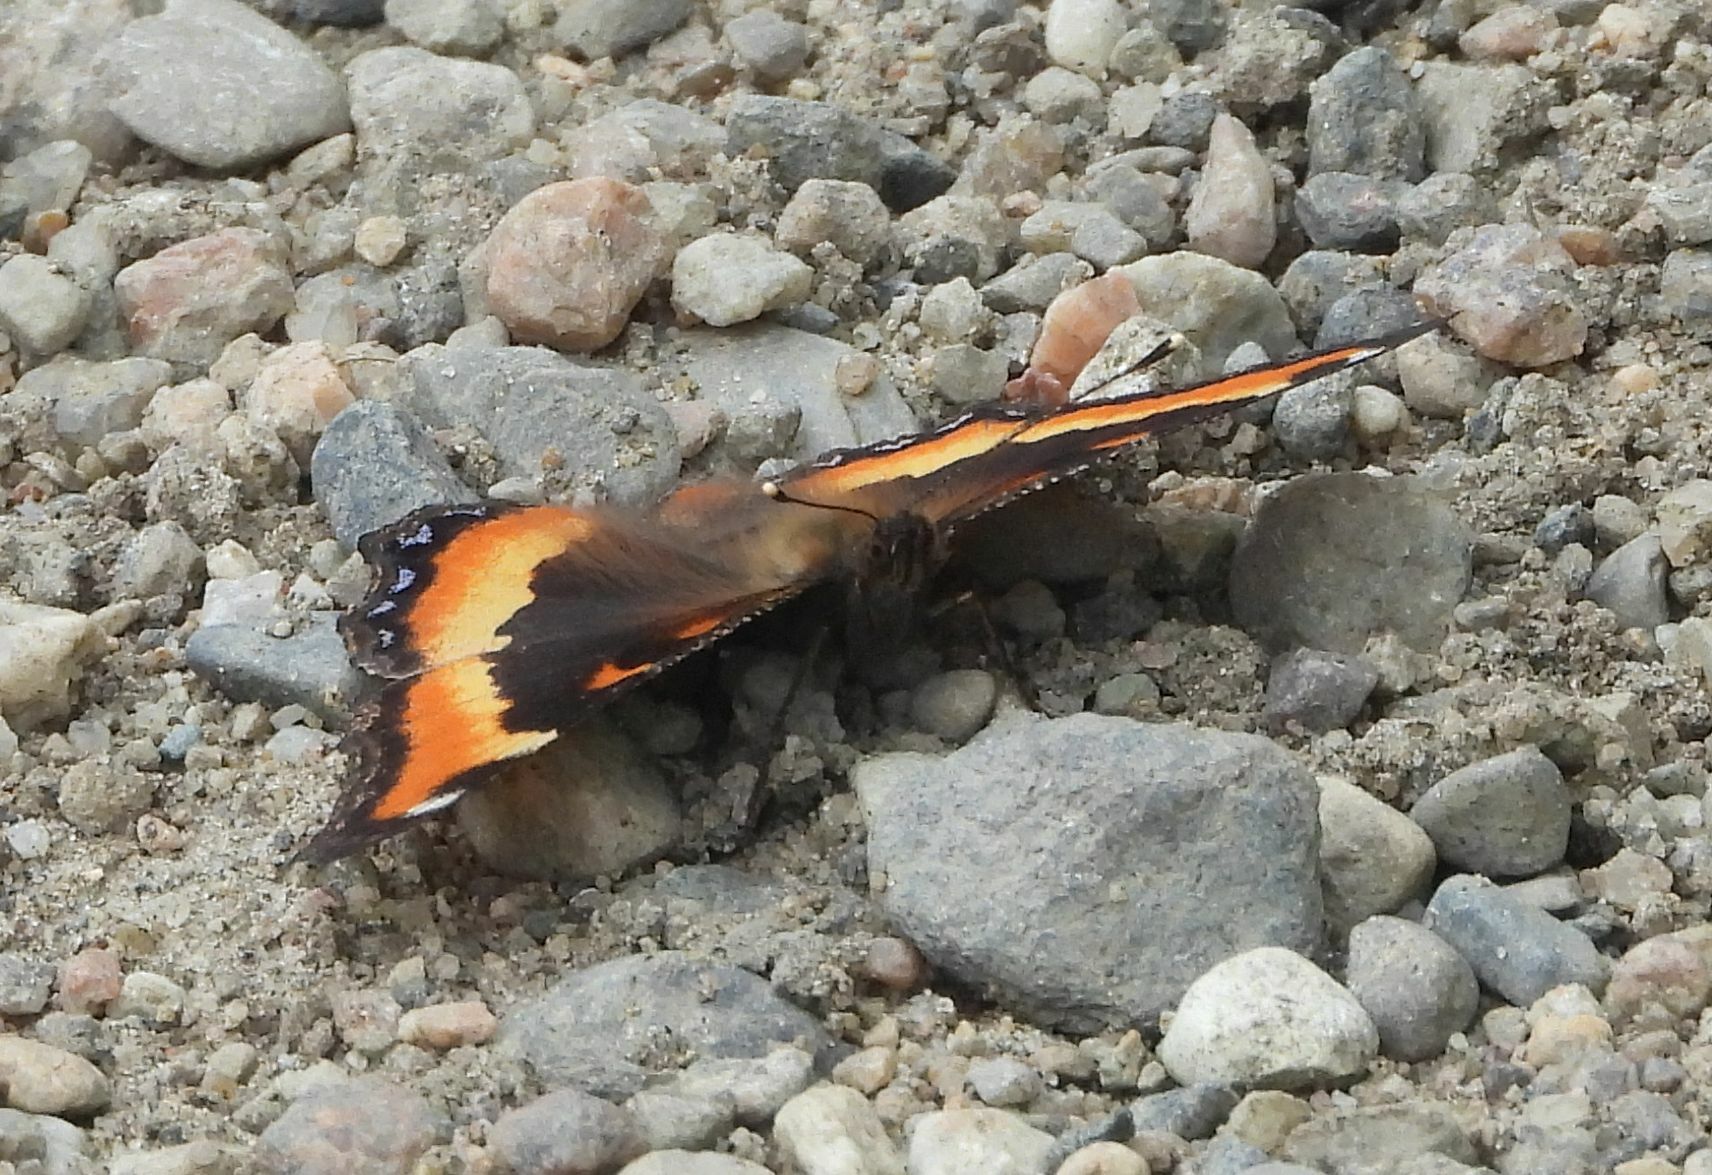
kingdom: Animalia
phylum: Arthropoda
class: Insecta
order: Lepidoptera
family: Nymphalidae
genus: Aglais
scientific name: Aglais milberti
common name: Milbert's tortoiseshell
